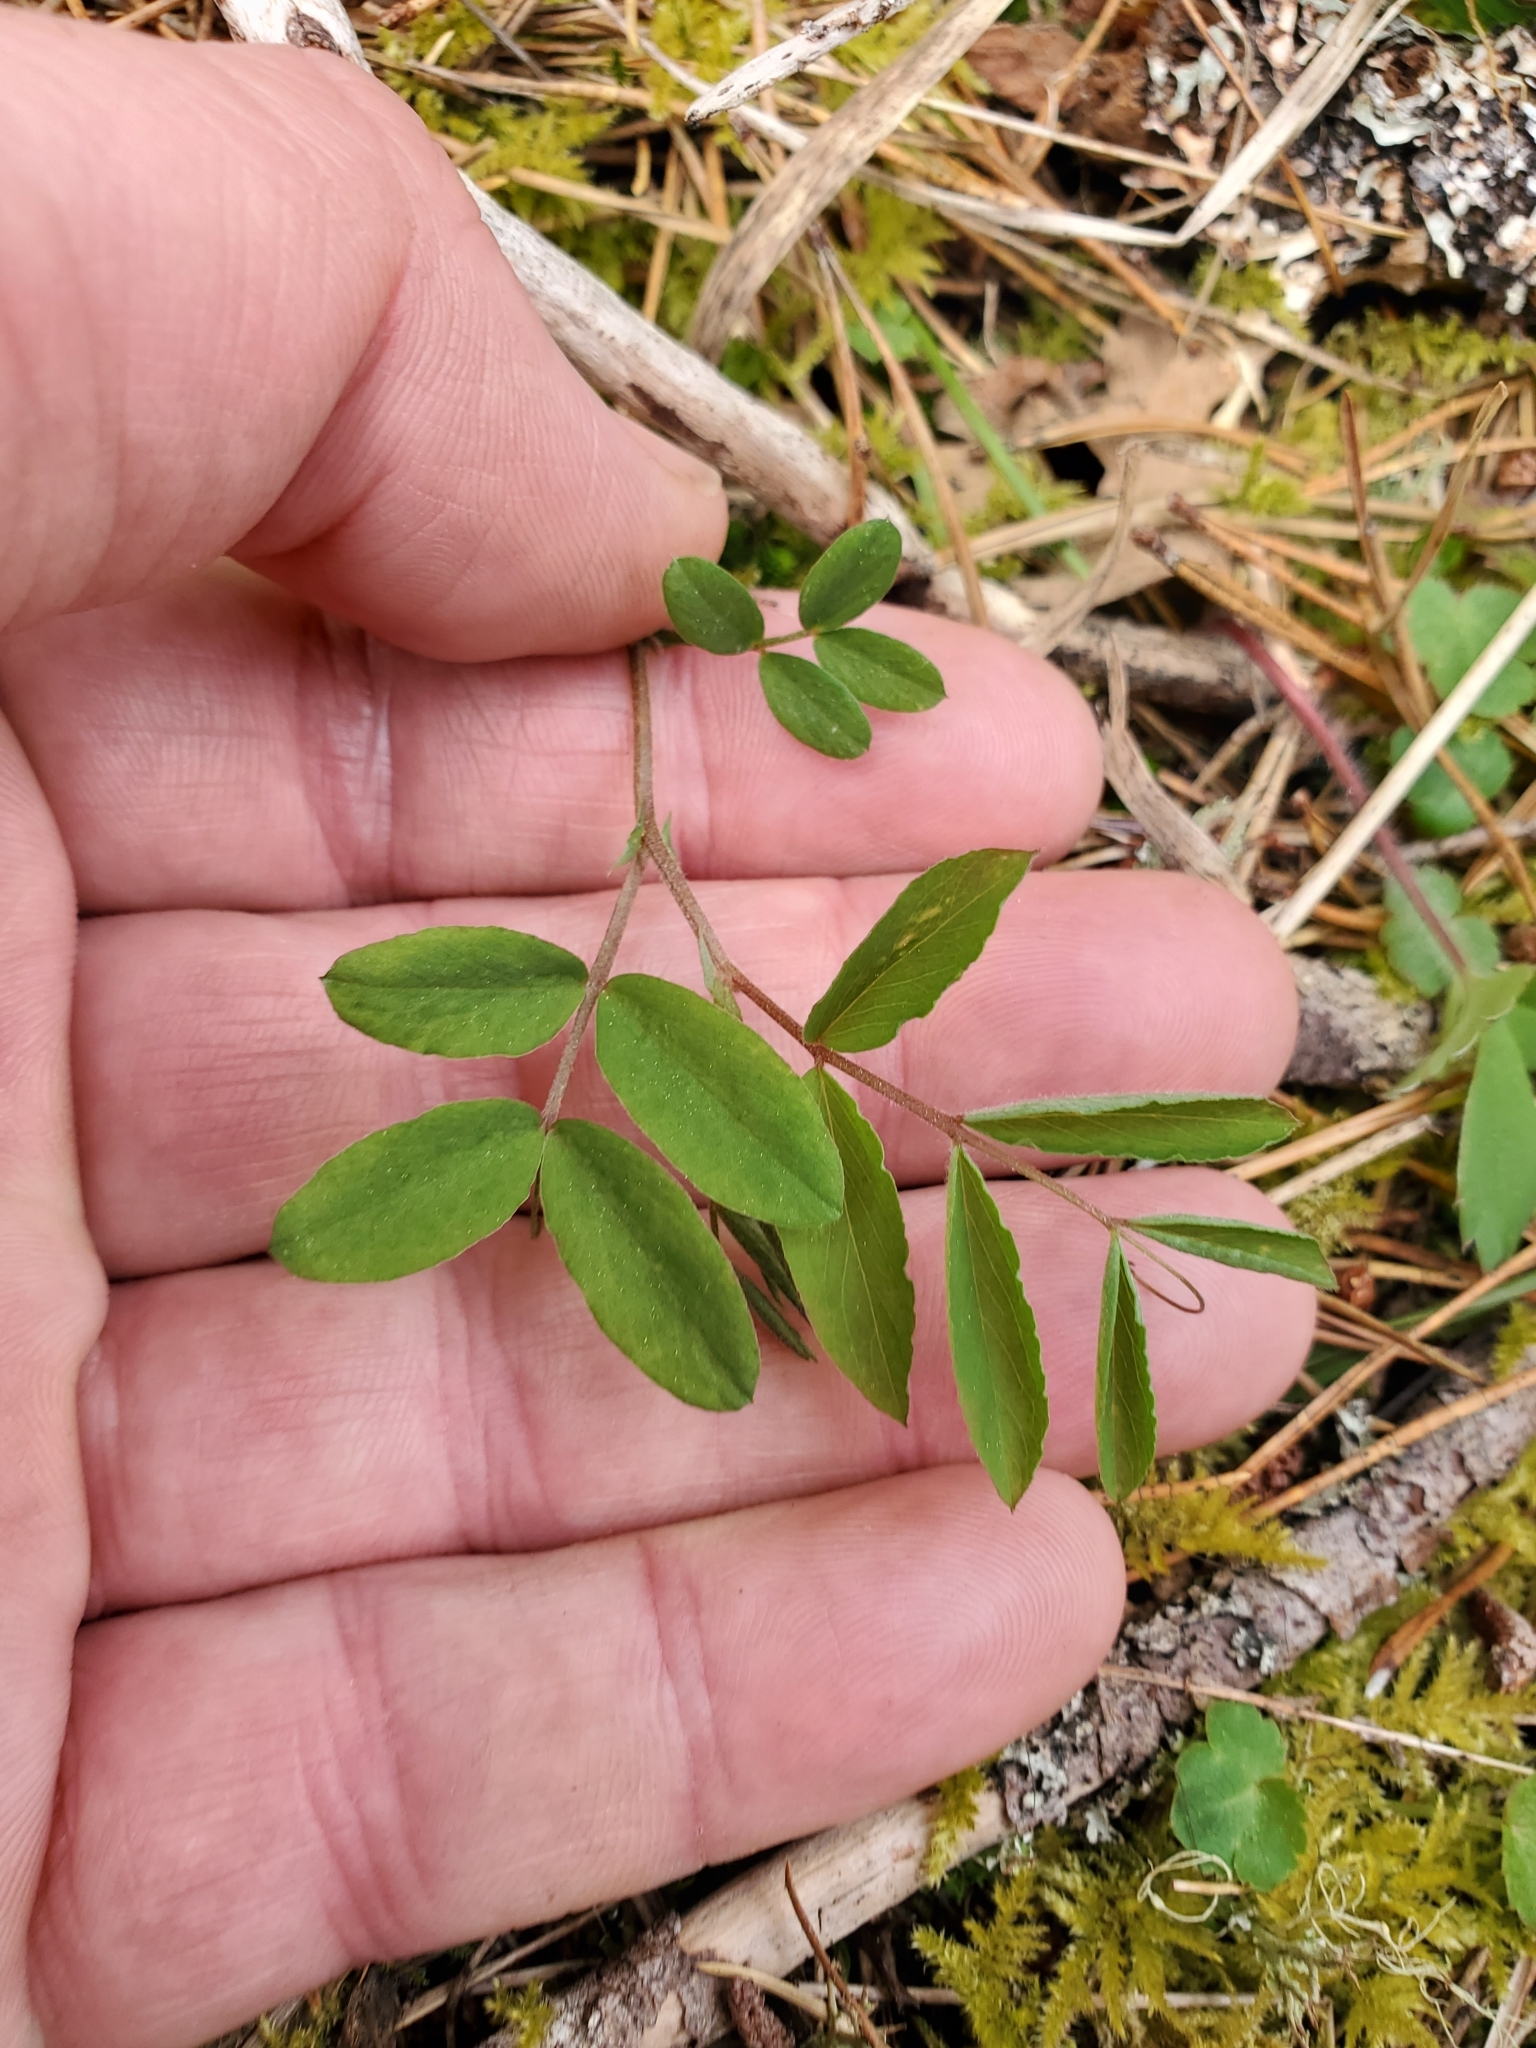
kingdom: Plantae
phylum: Tracheophyta
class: Magnoliopsida
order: Fabales
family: Fabaceae
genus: Lathyrus
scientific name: Lathyrus nevadensis
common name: Sierra nevada peavine
